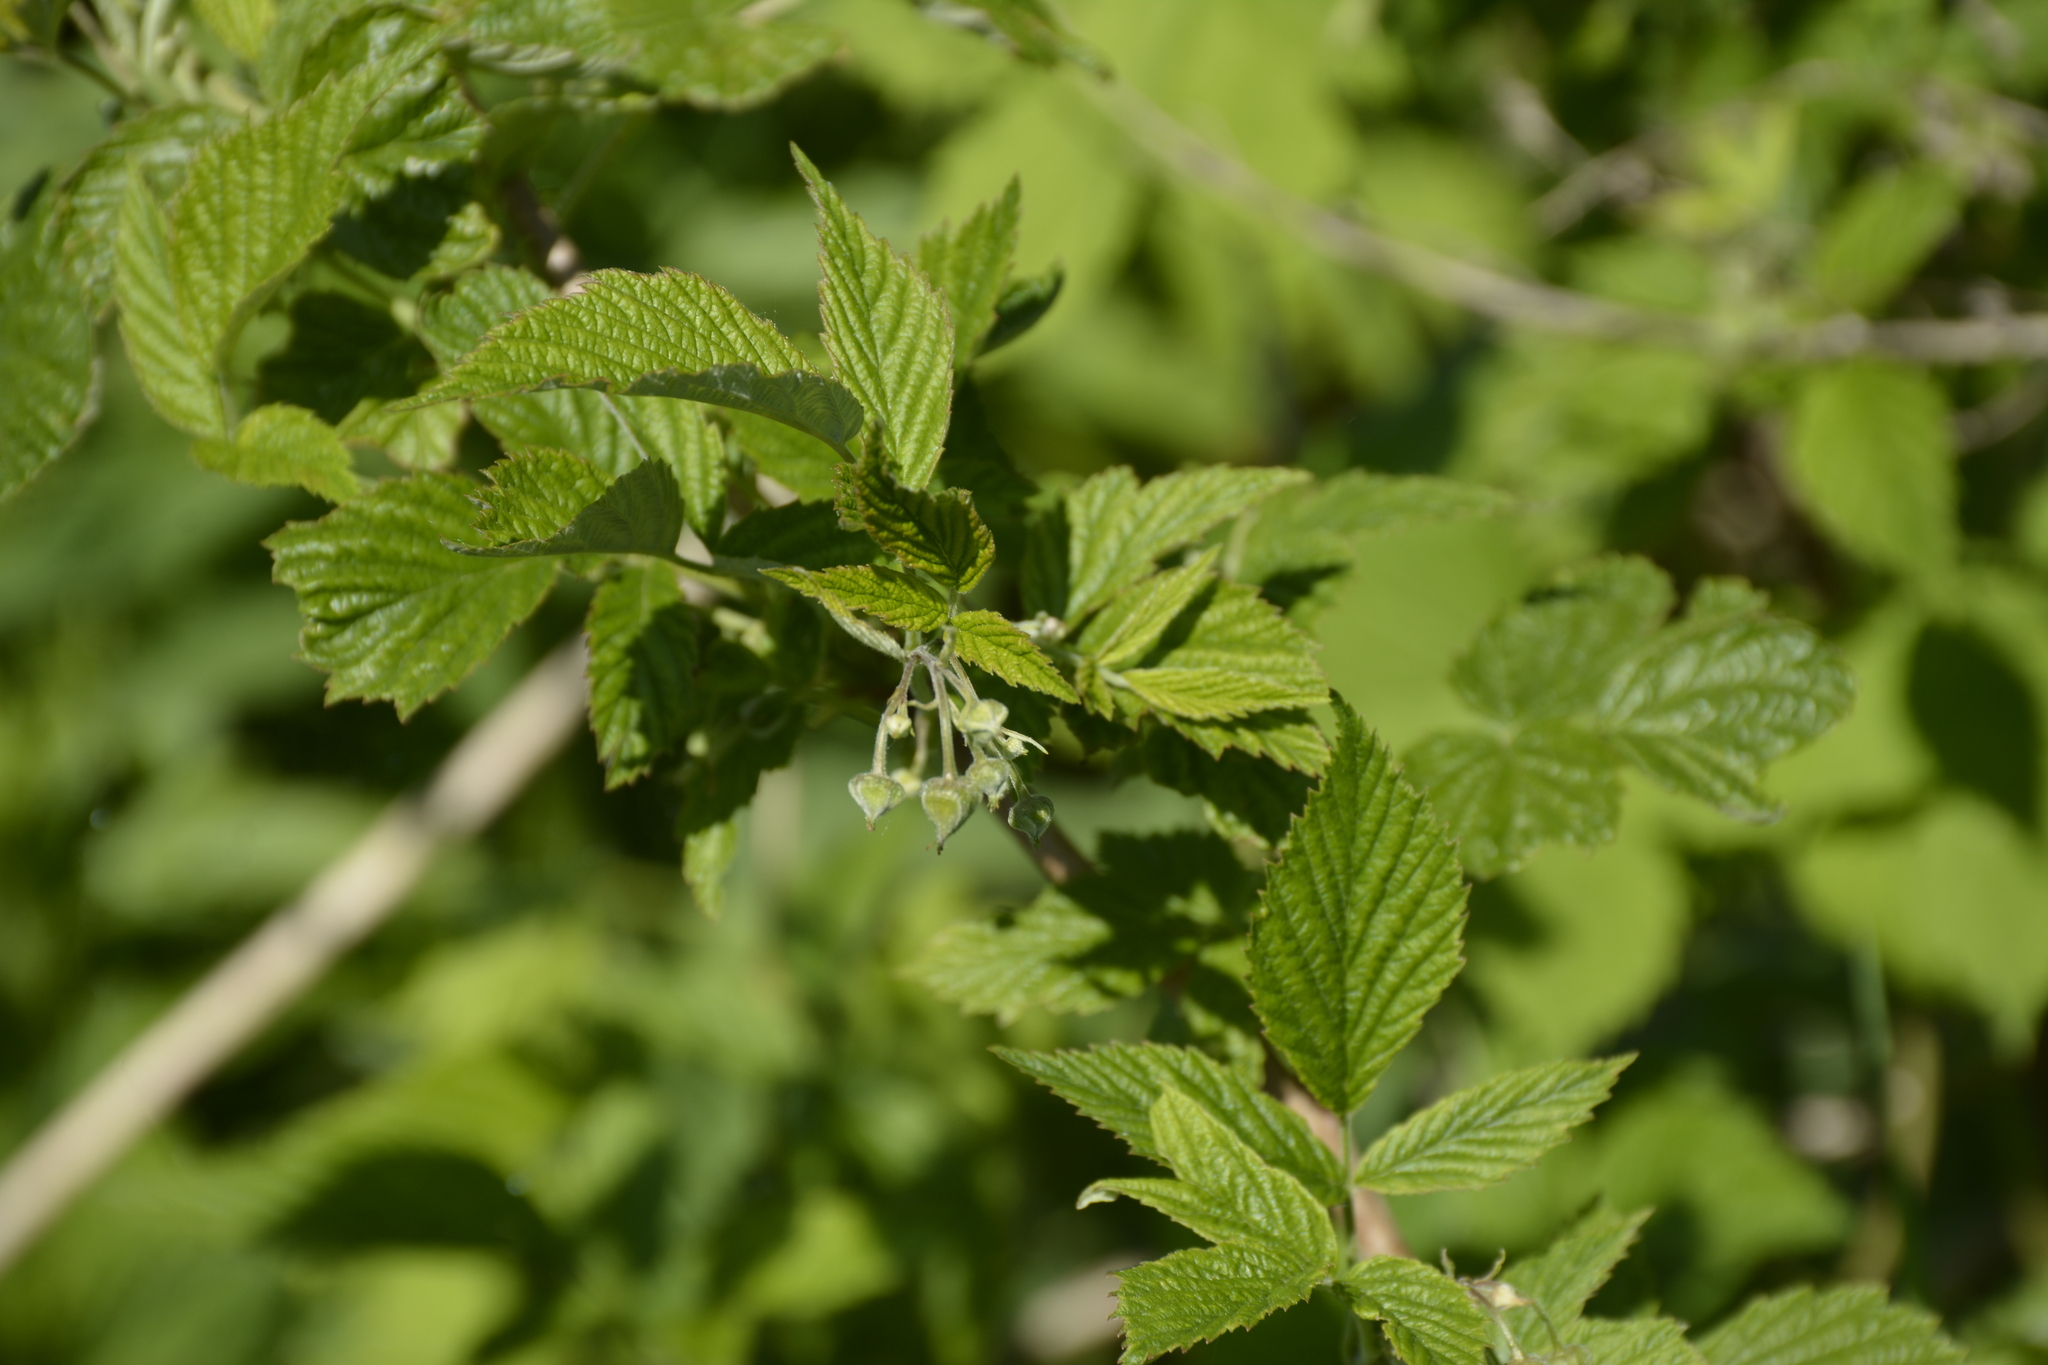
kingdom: Plantae
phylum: Tracheophyta
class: Magnoliopsida
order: Rosales
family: Rosaceae
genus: Rubus
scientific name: Rubus idaeus
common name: Raspberry
